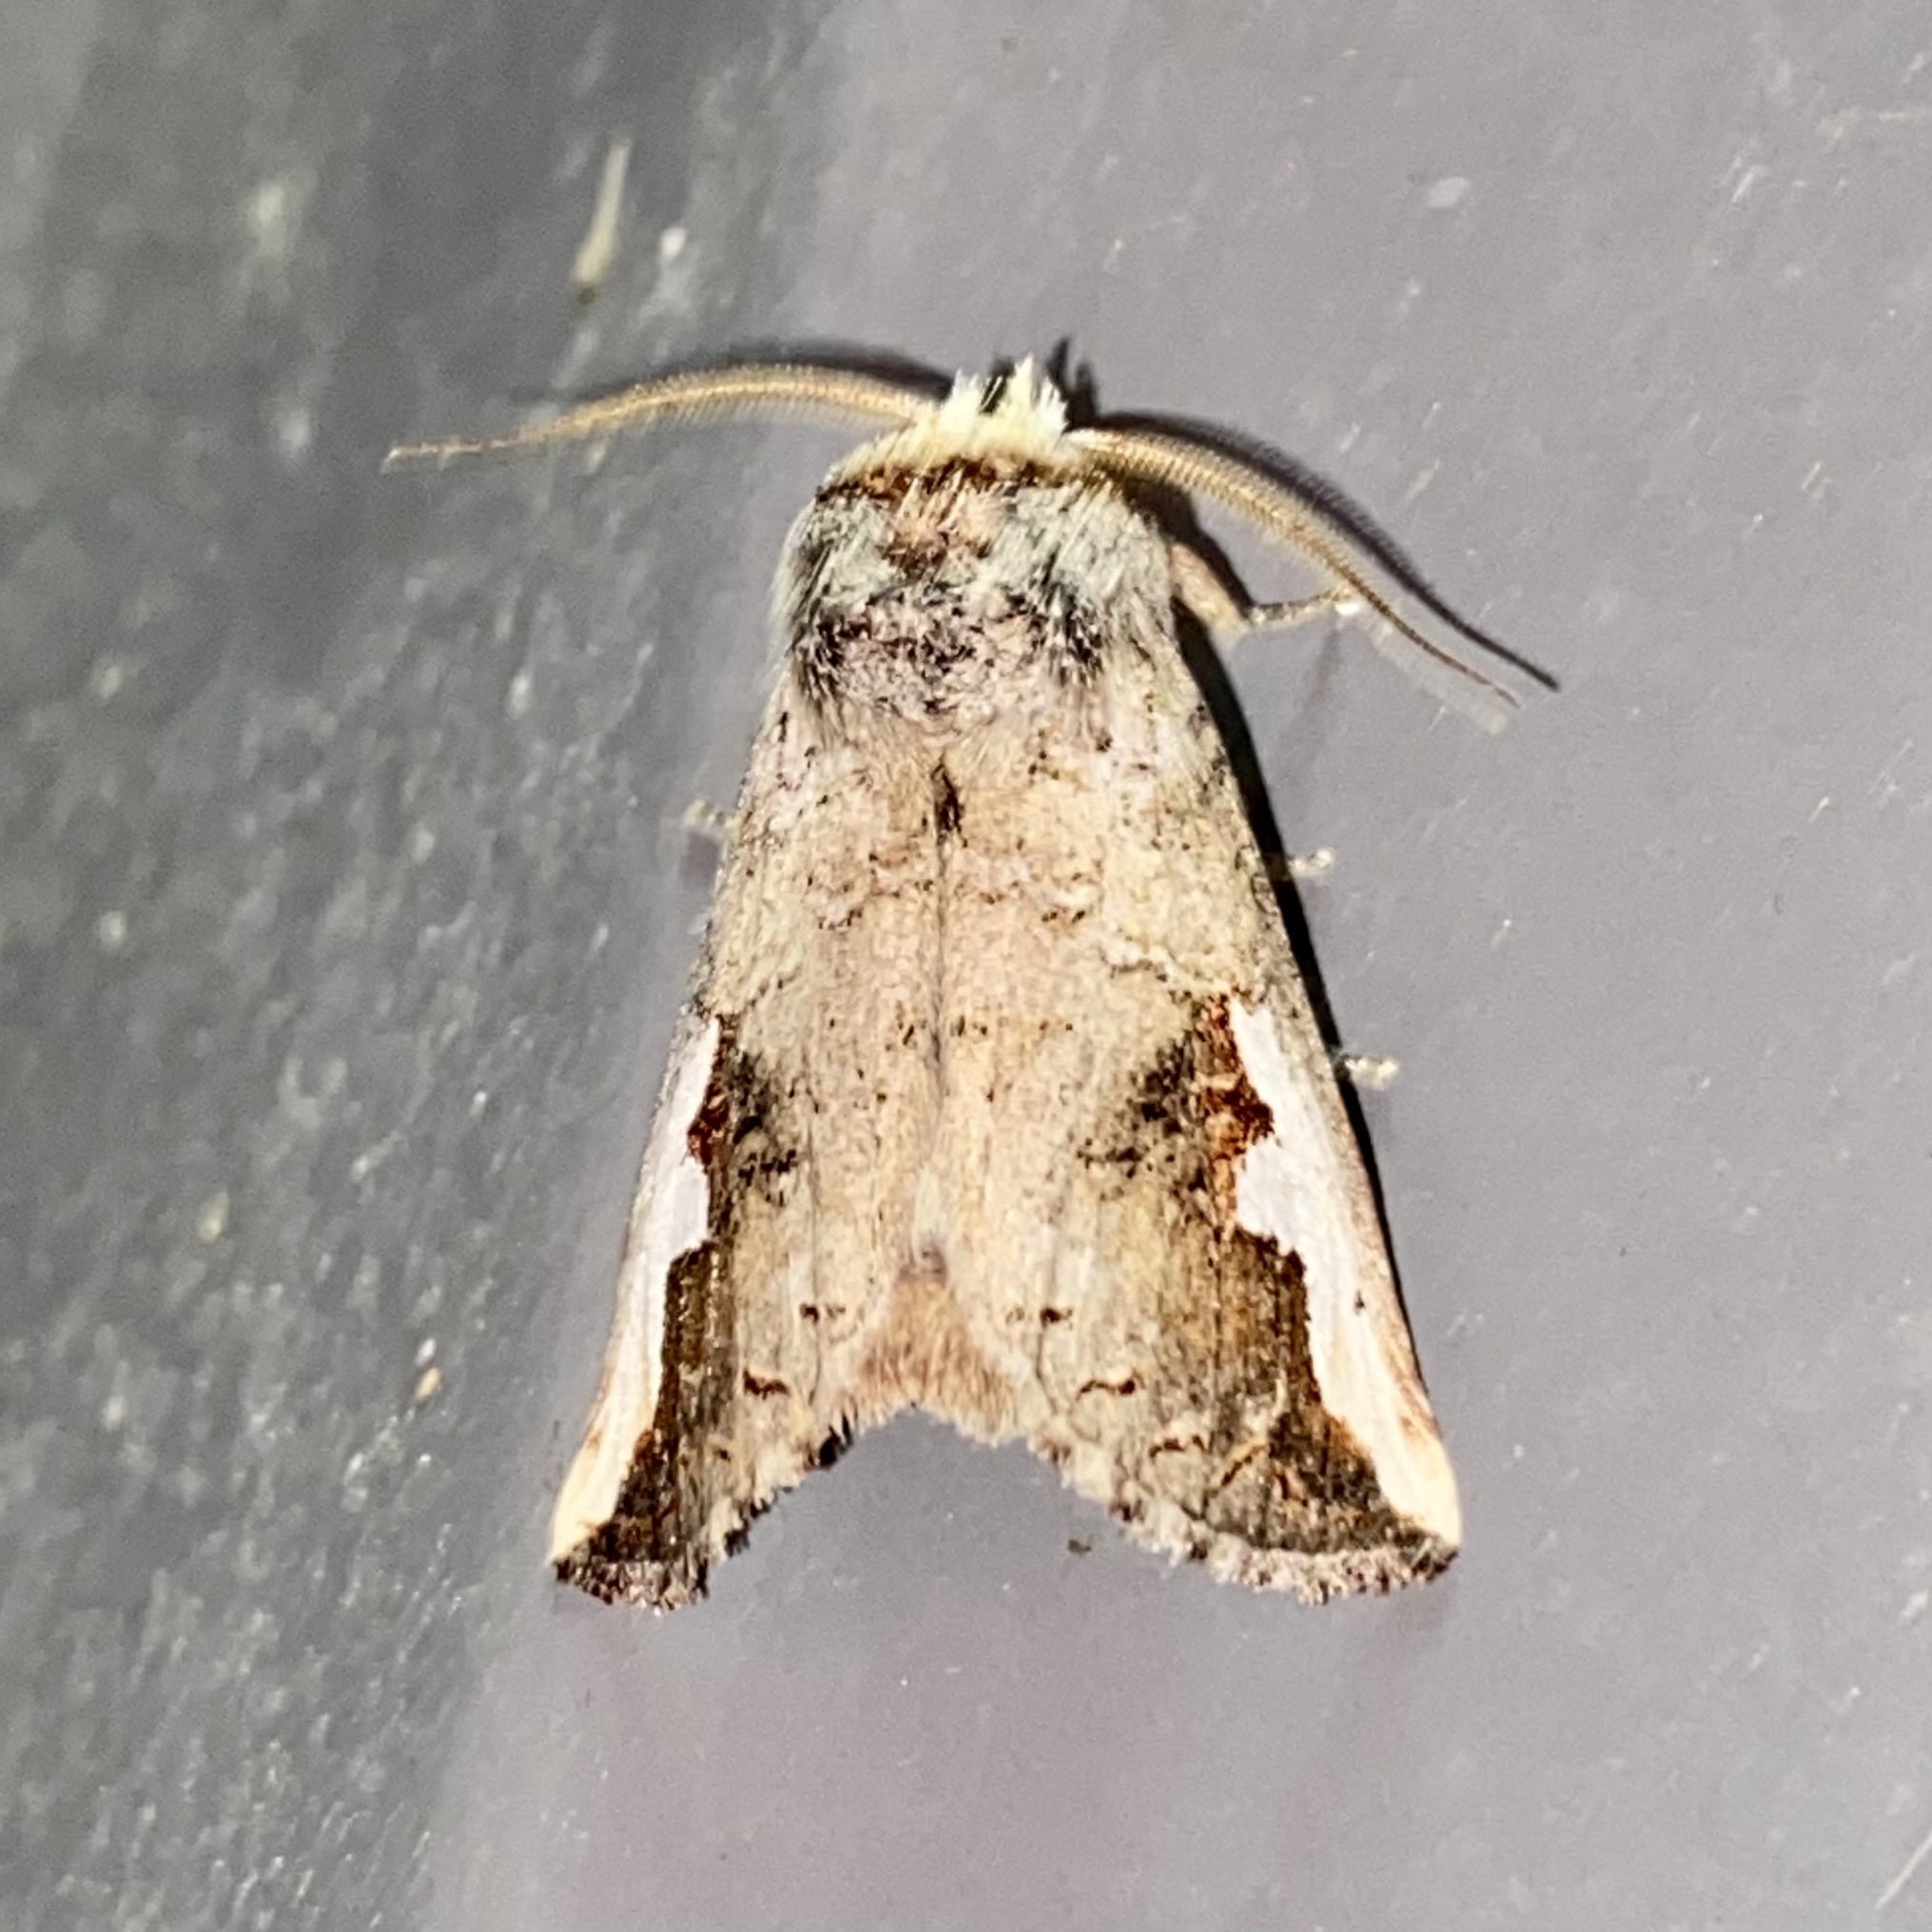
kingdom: Animalia
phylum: Arthropoda
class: Insecta
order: Lepidoptera
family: Notodontidae
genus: Symmerista
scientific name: Symmerista albifrons
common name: White-headed prominent
